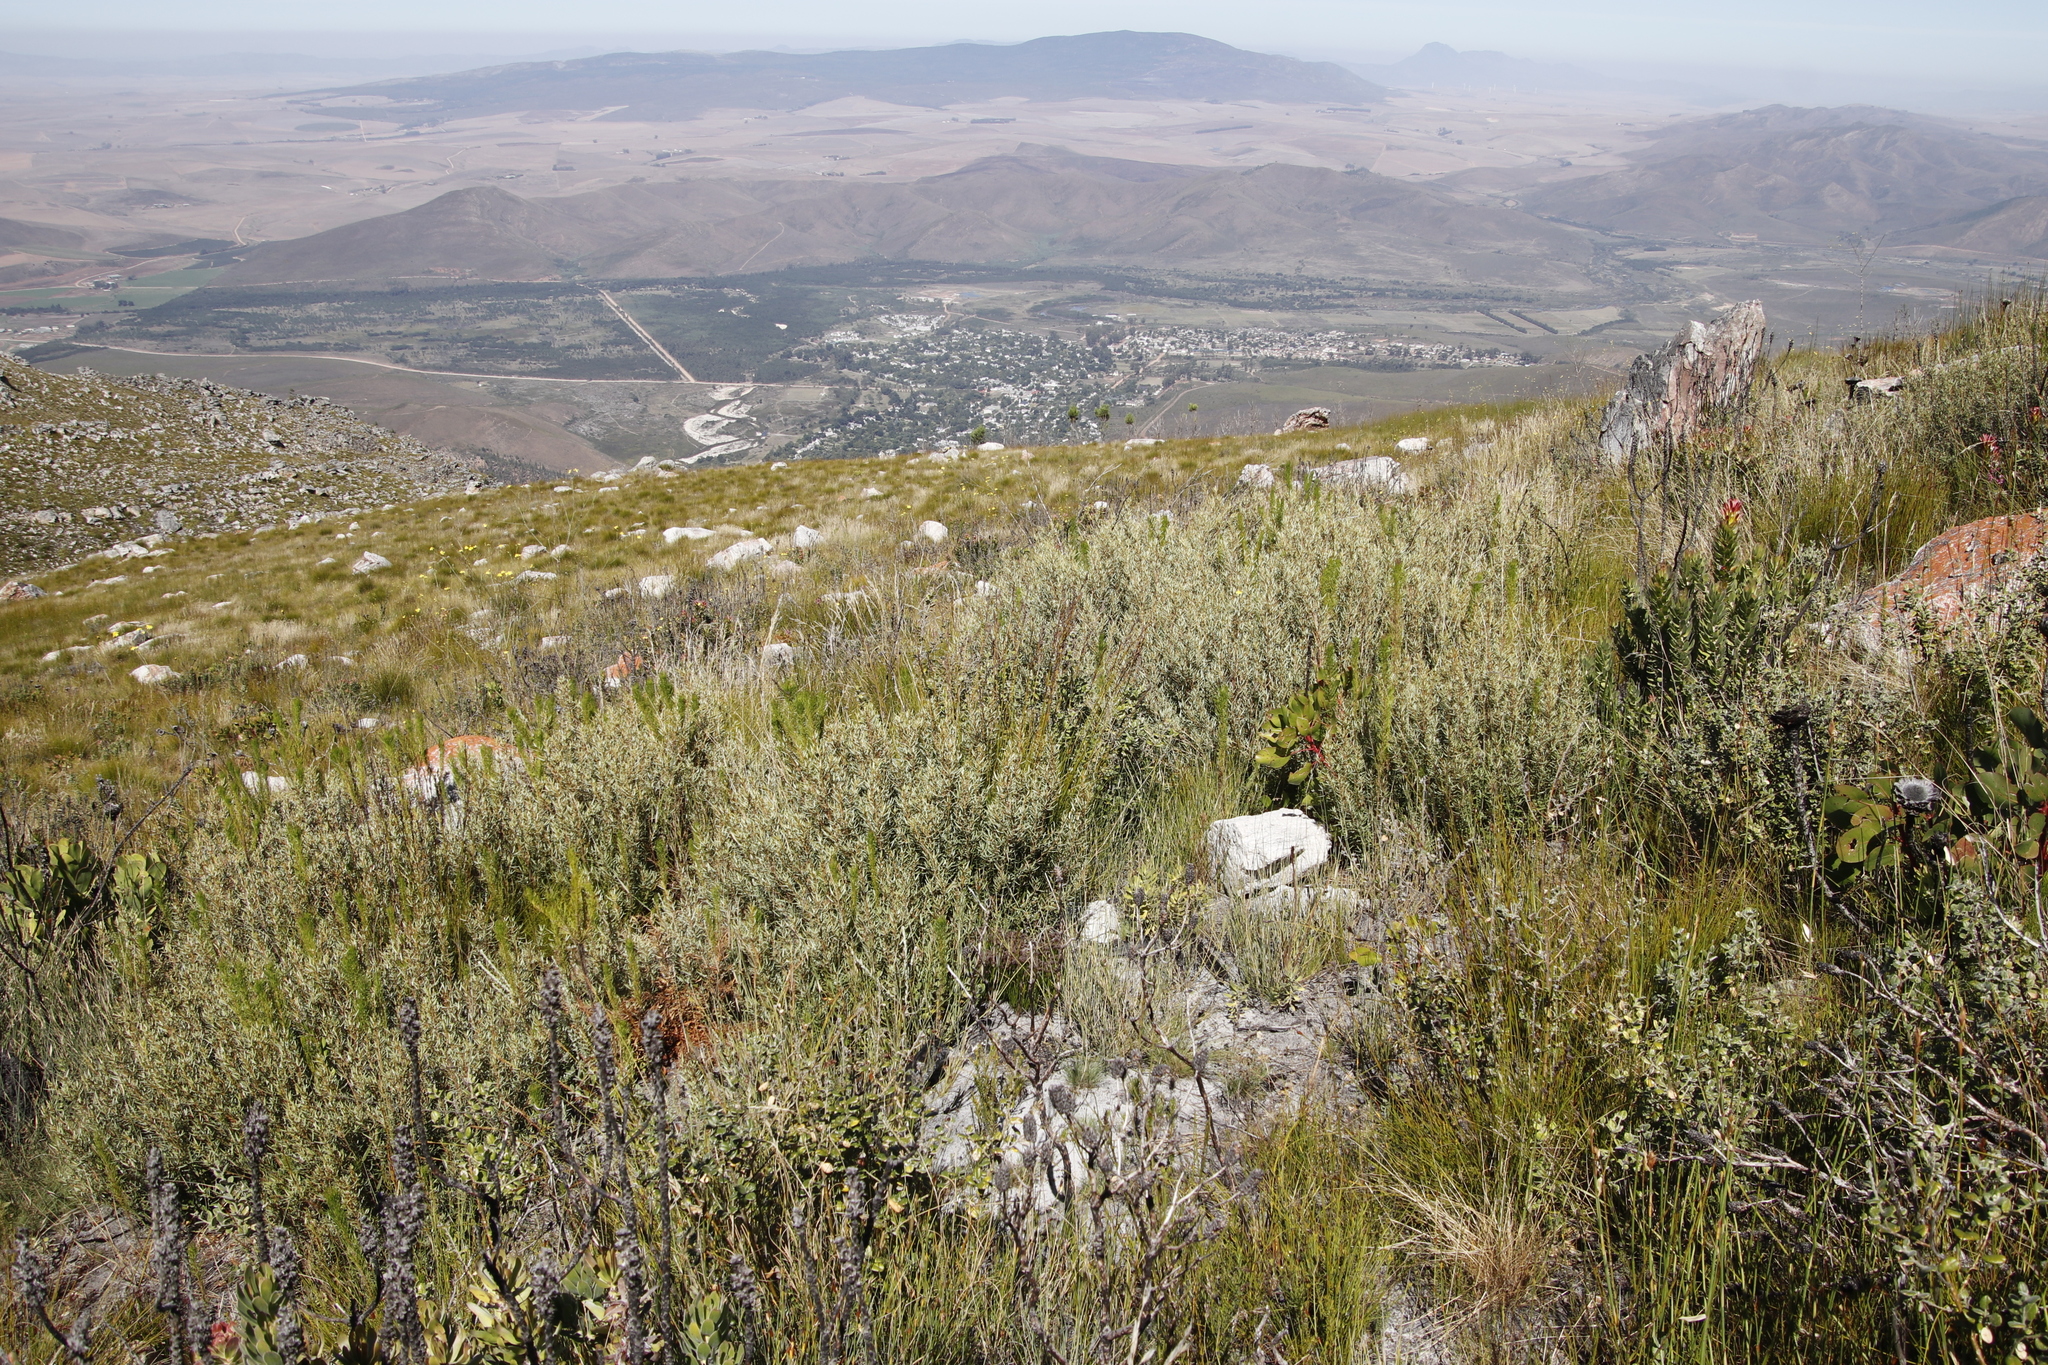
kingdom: Plantae
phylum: Tracheophyta
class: Magnoliopsida
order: Cornales
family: Grubbiaceae
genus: Grubbia
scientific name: Grubbia tomentosa
